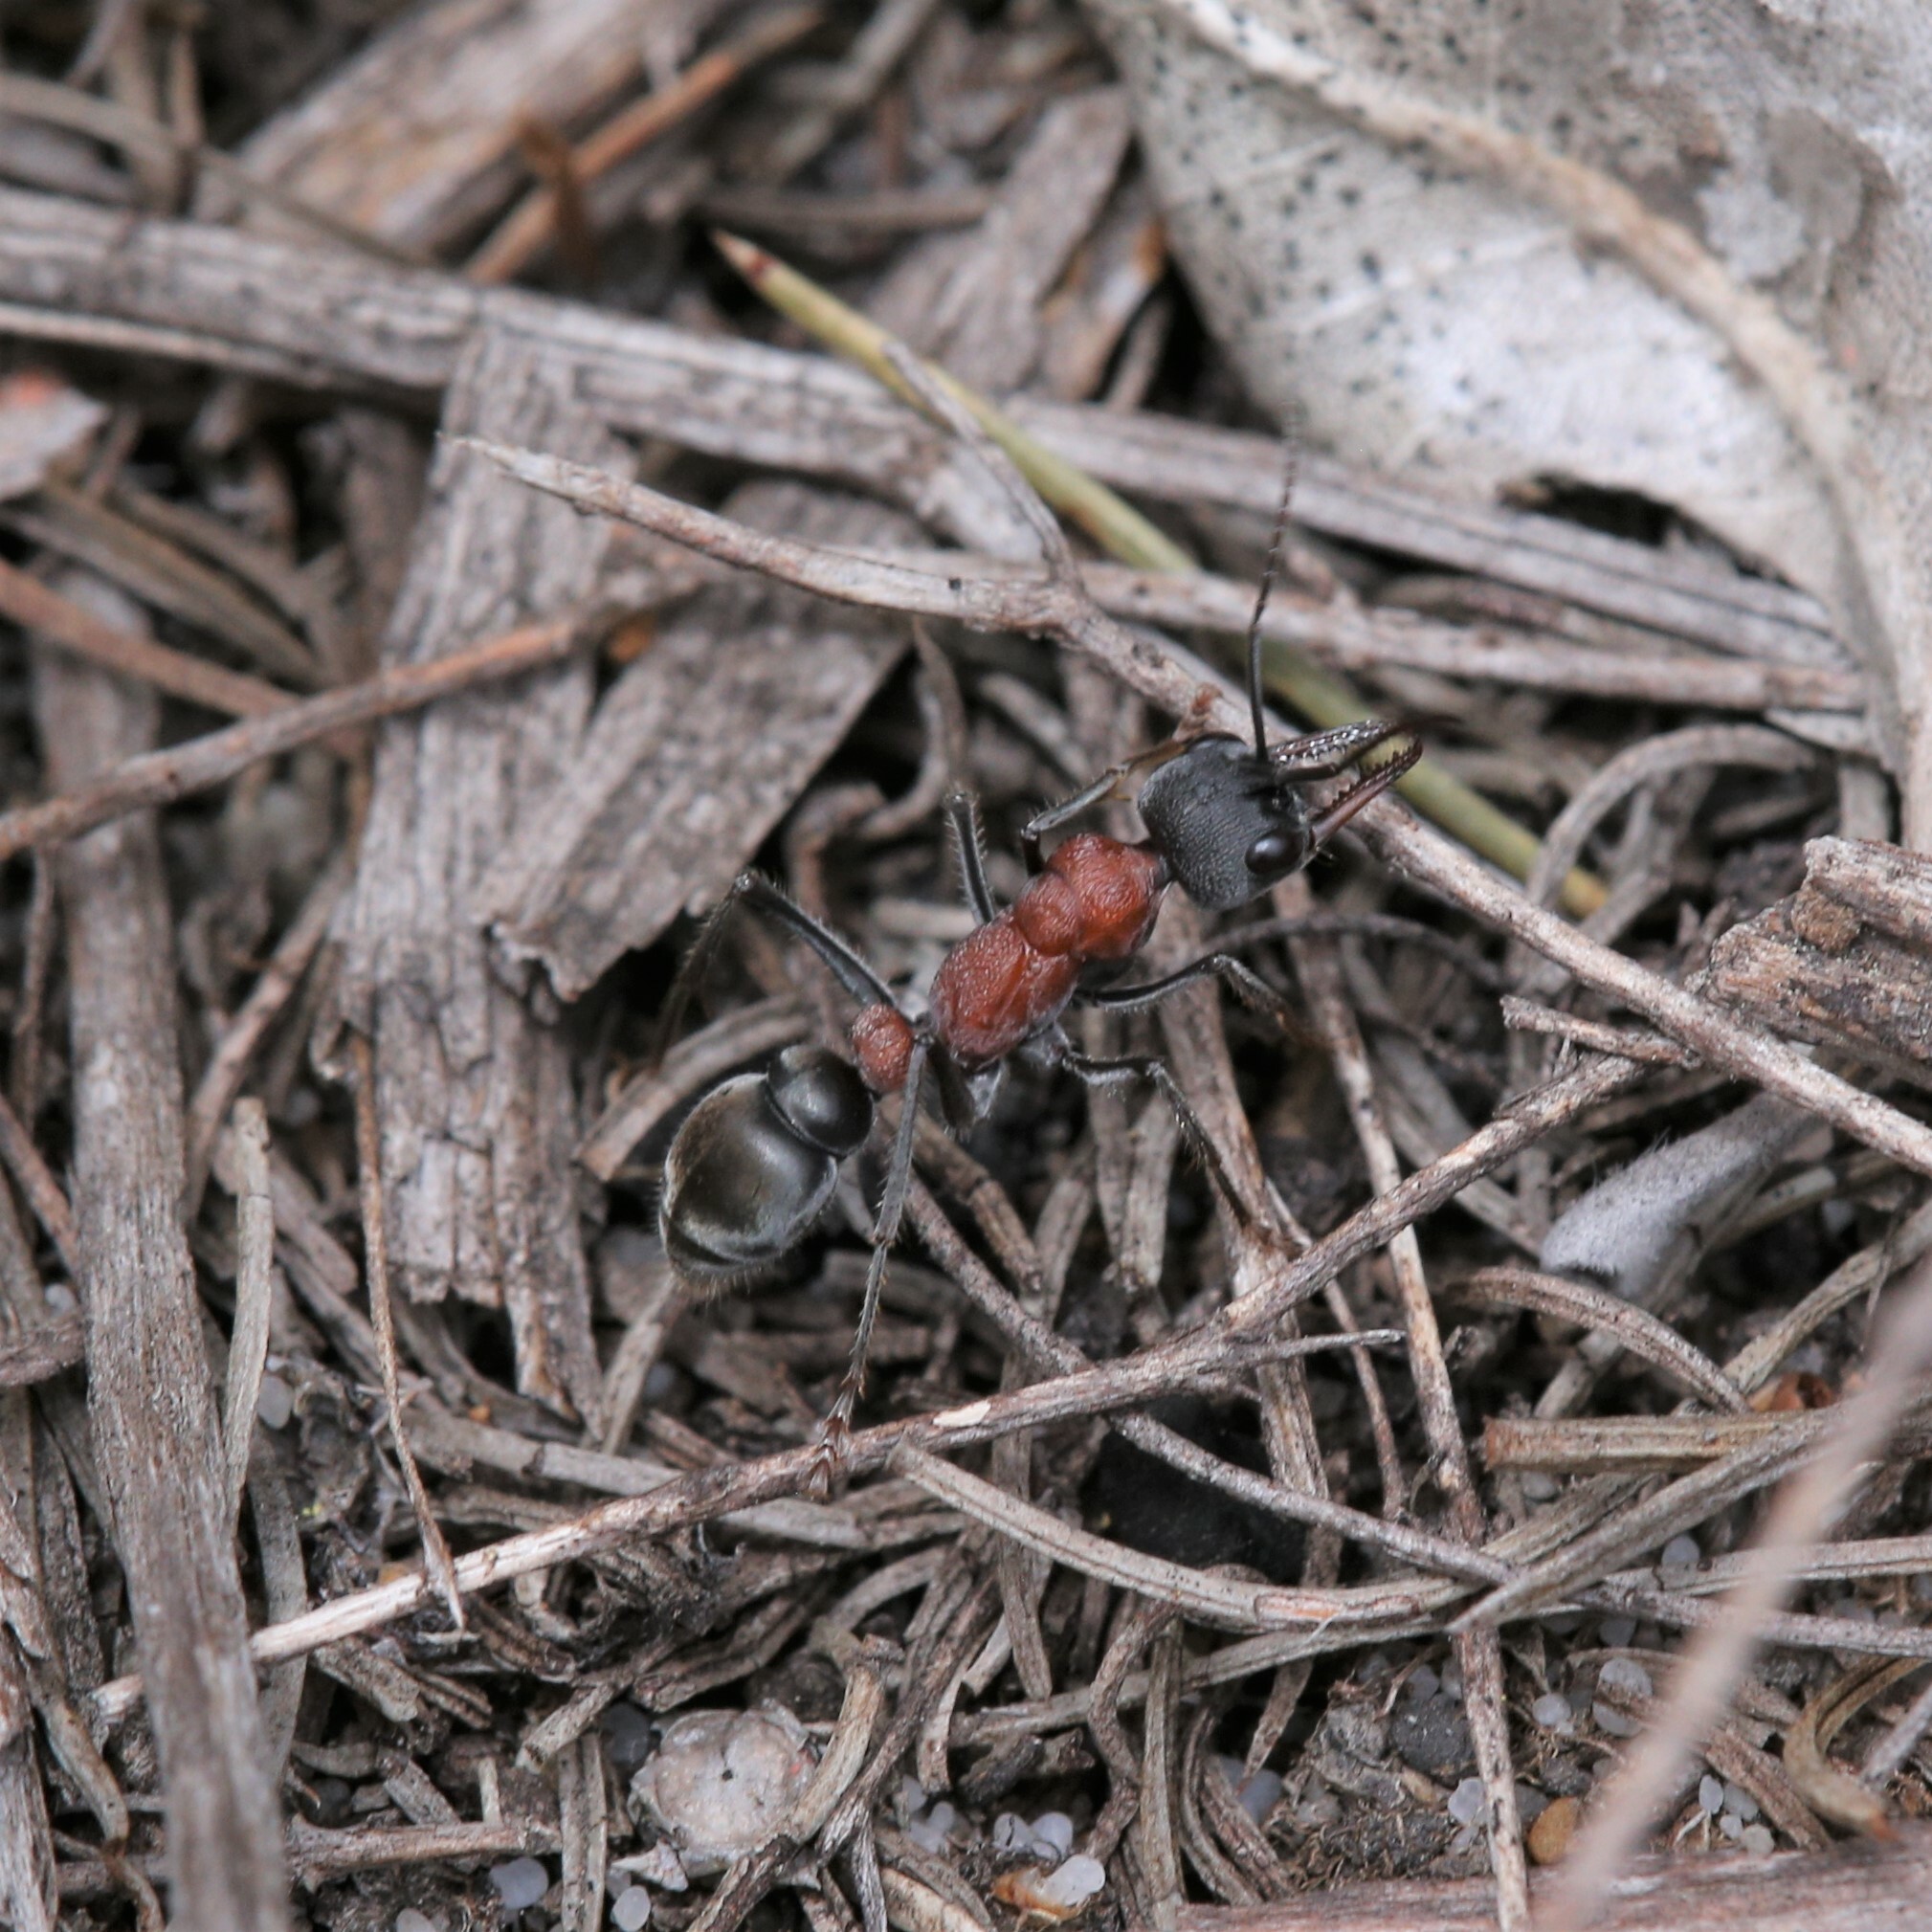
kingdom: Animalia
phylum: Arthropoda
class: Insecta
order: Hymenoptera
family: Formicidae
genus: Myrmecia
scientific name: Myrmecia ludlowi
